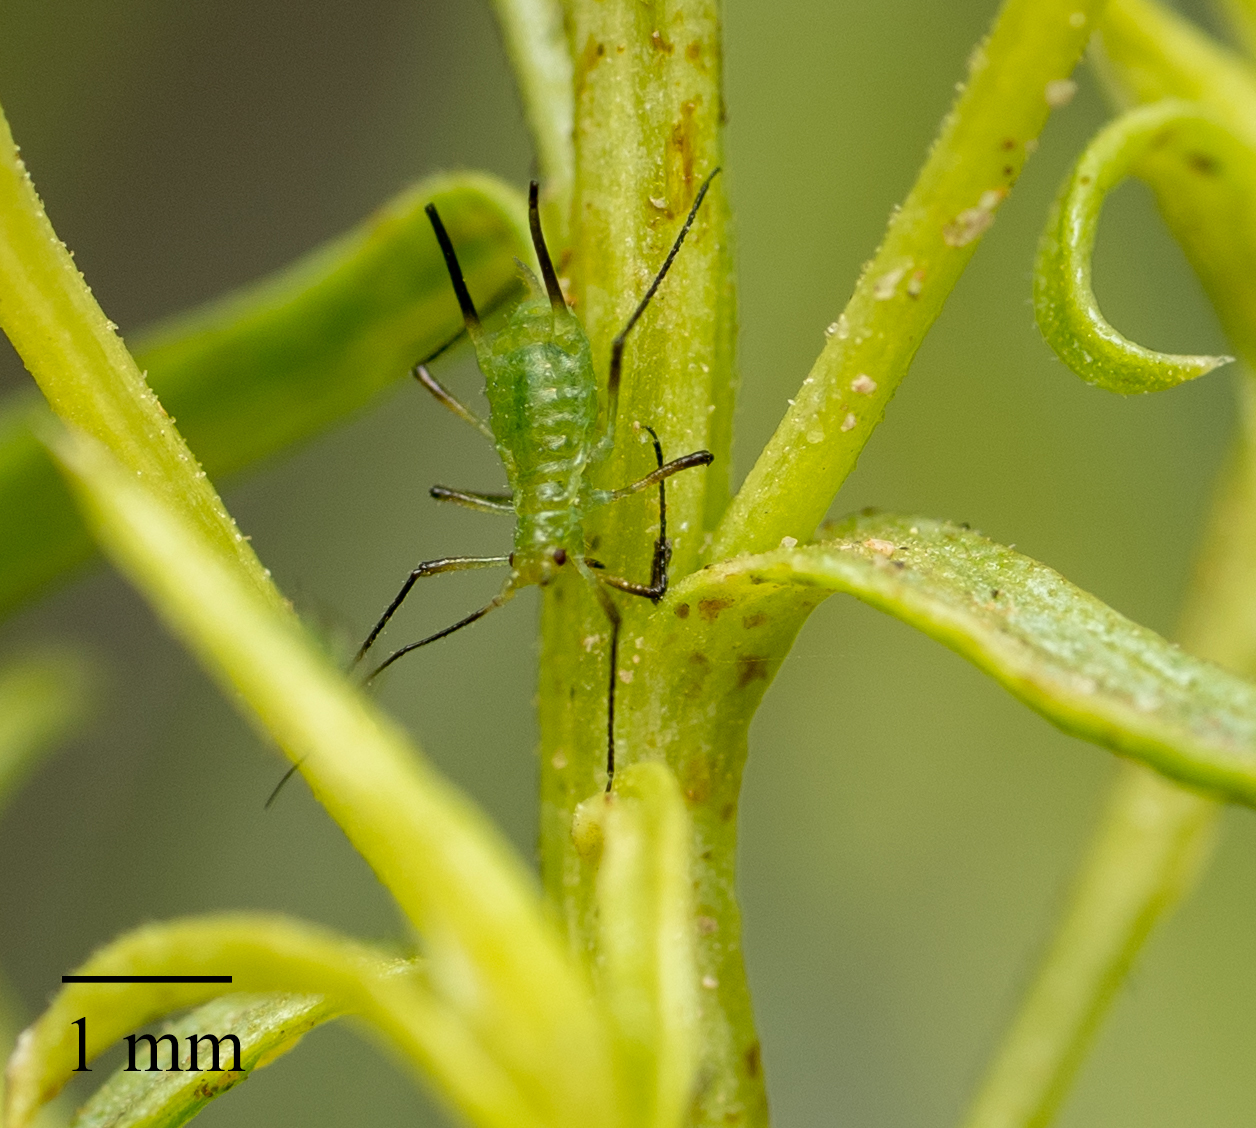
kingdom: Animalia
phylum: Arthropoda
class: Insecta
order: Hemiptera
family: Aphididae
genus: Uroleucon
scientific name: Uroleucon erigeronense
